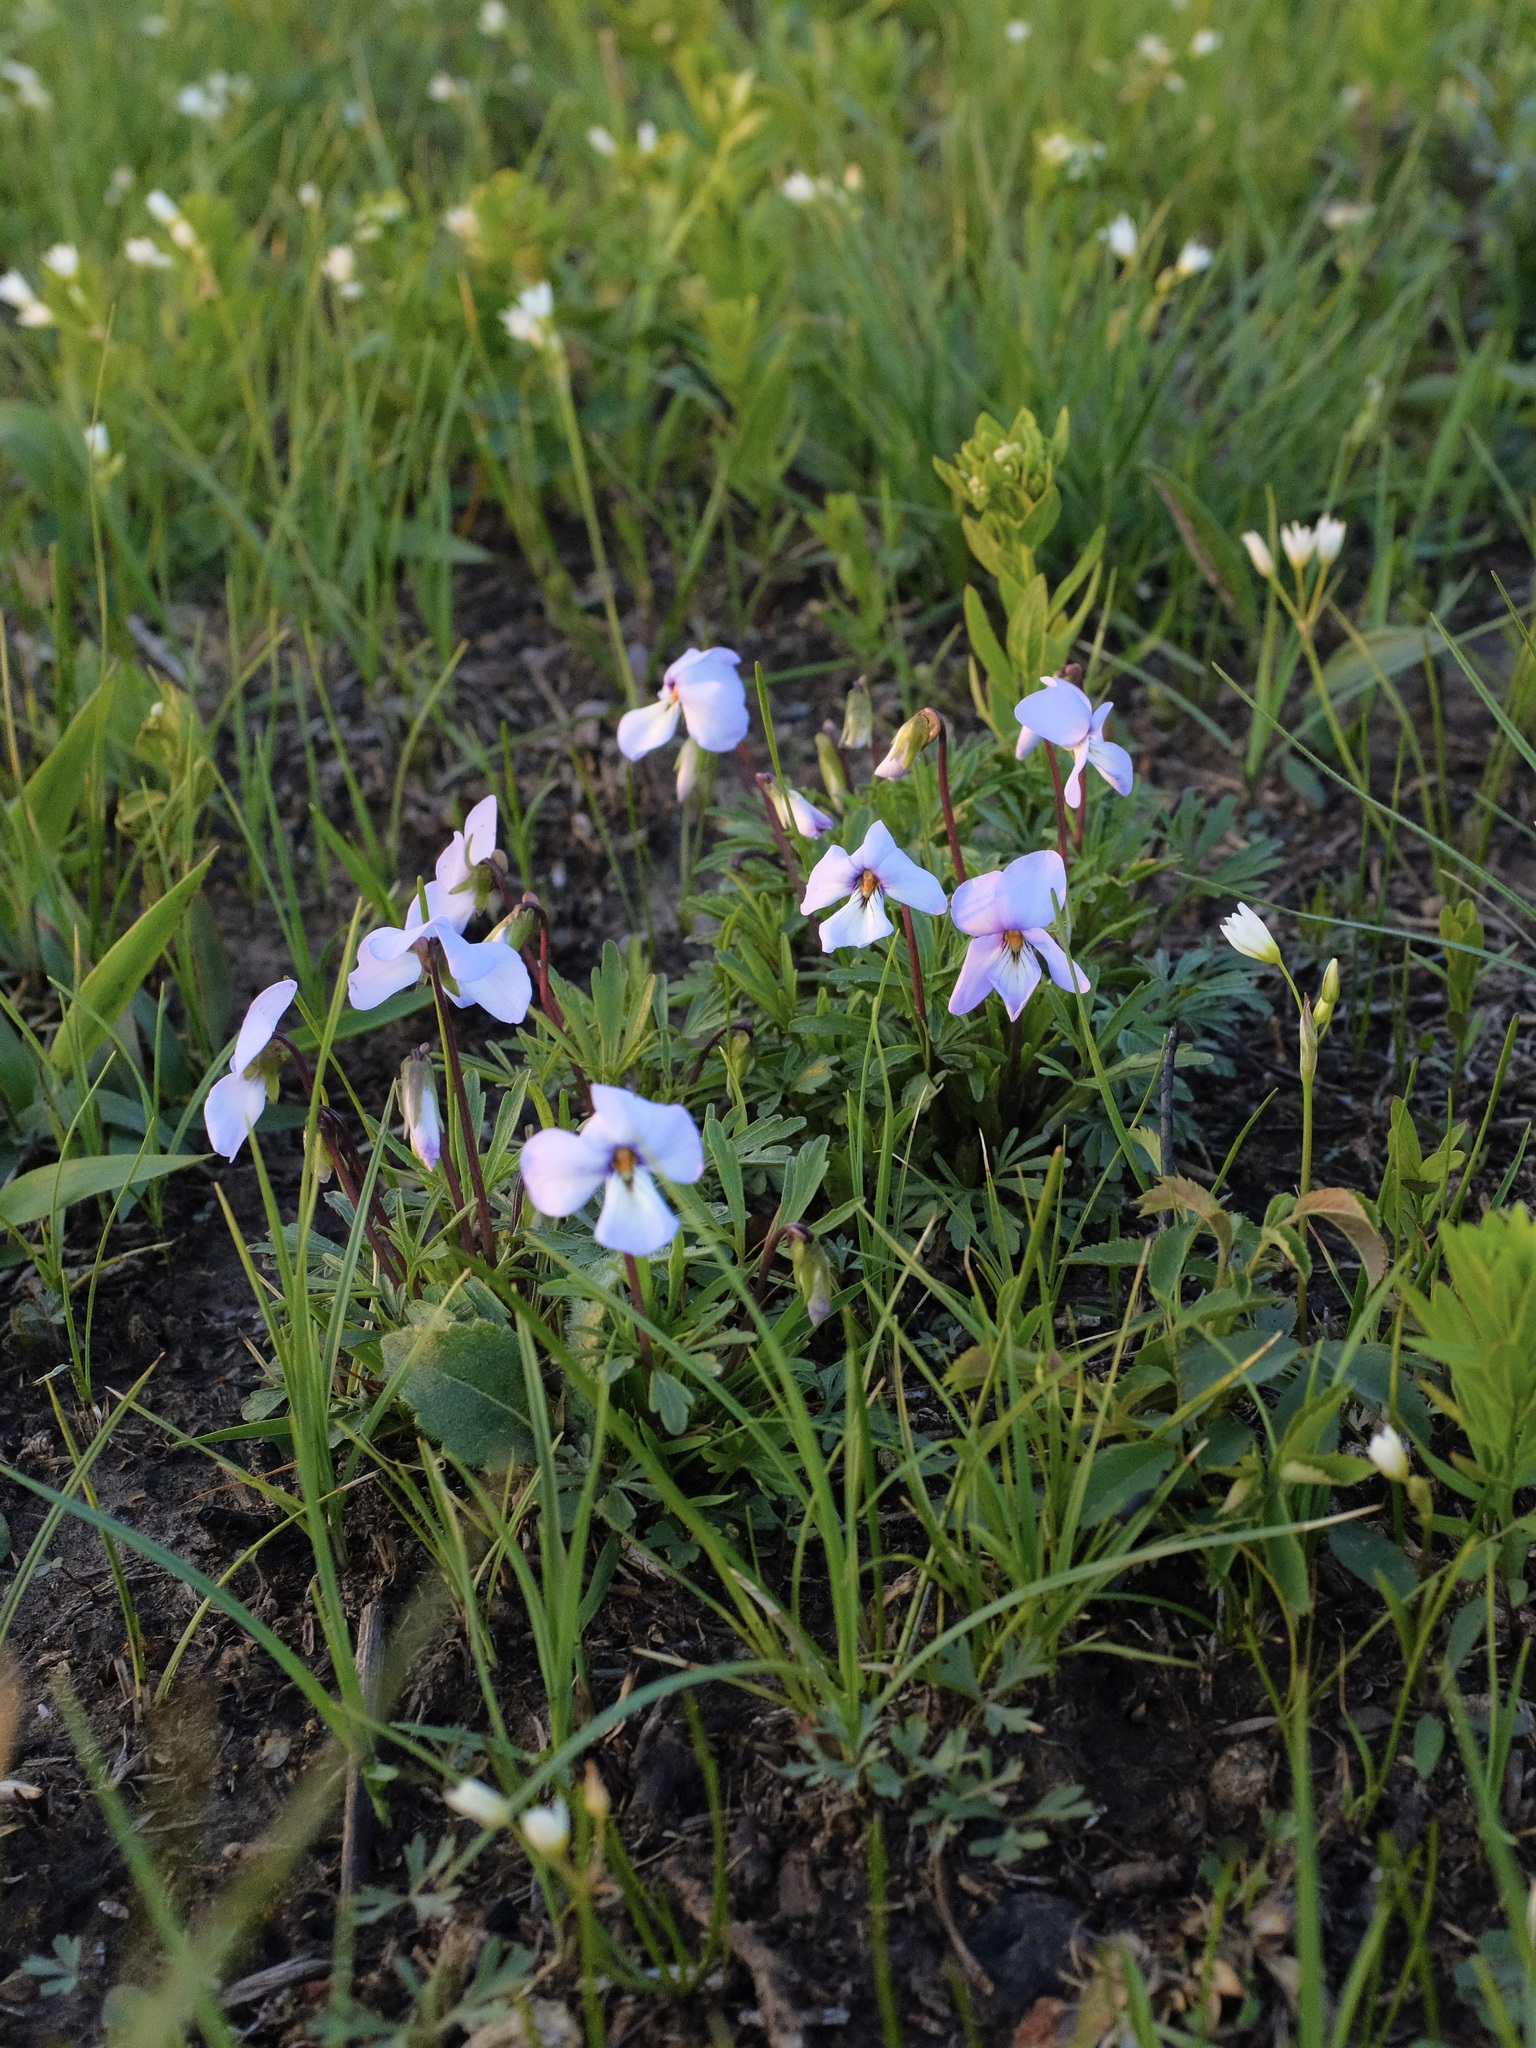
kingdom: Plantae
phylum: Tracheophyta
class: Magnoliopsida
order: Malpighiales
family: Violaceae
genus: Viola
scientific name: Viola pedata
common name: Pansy violet
